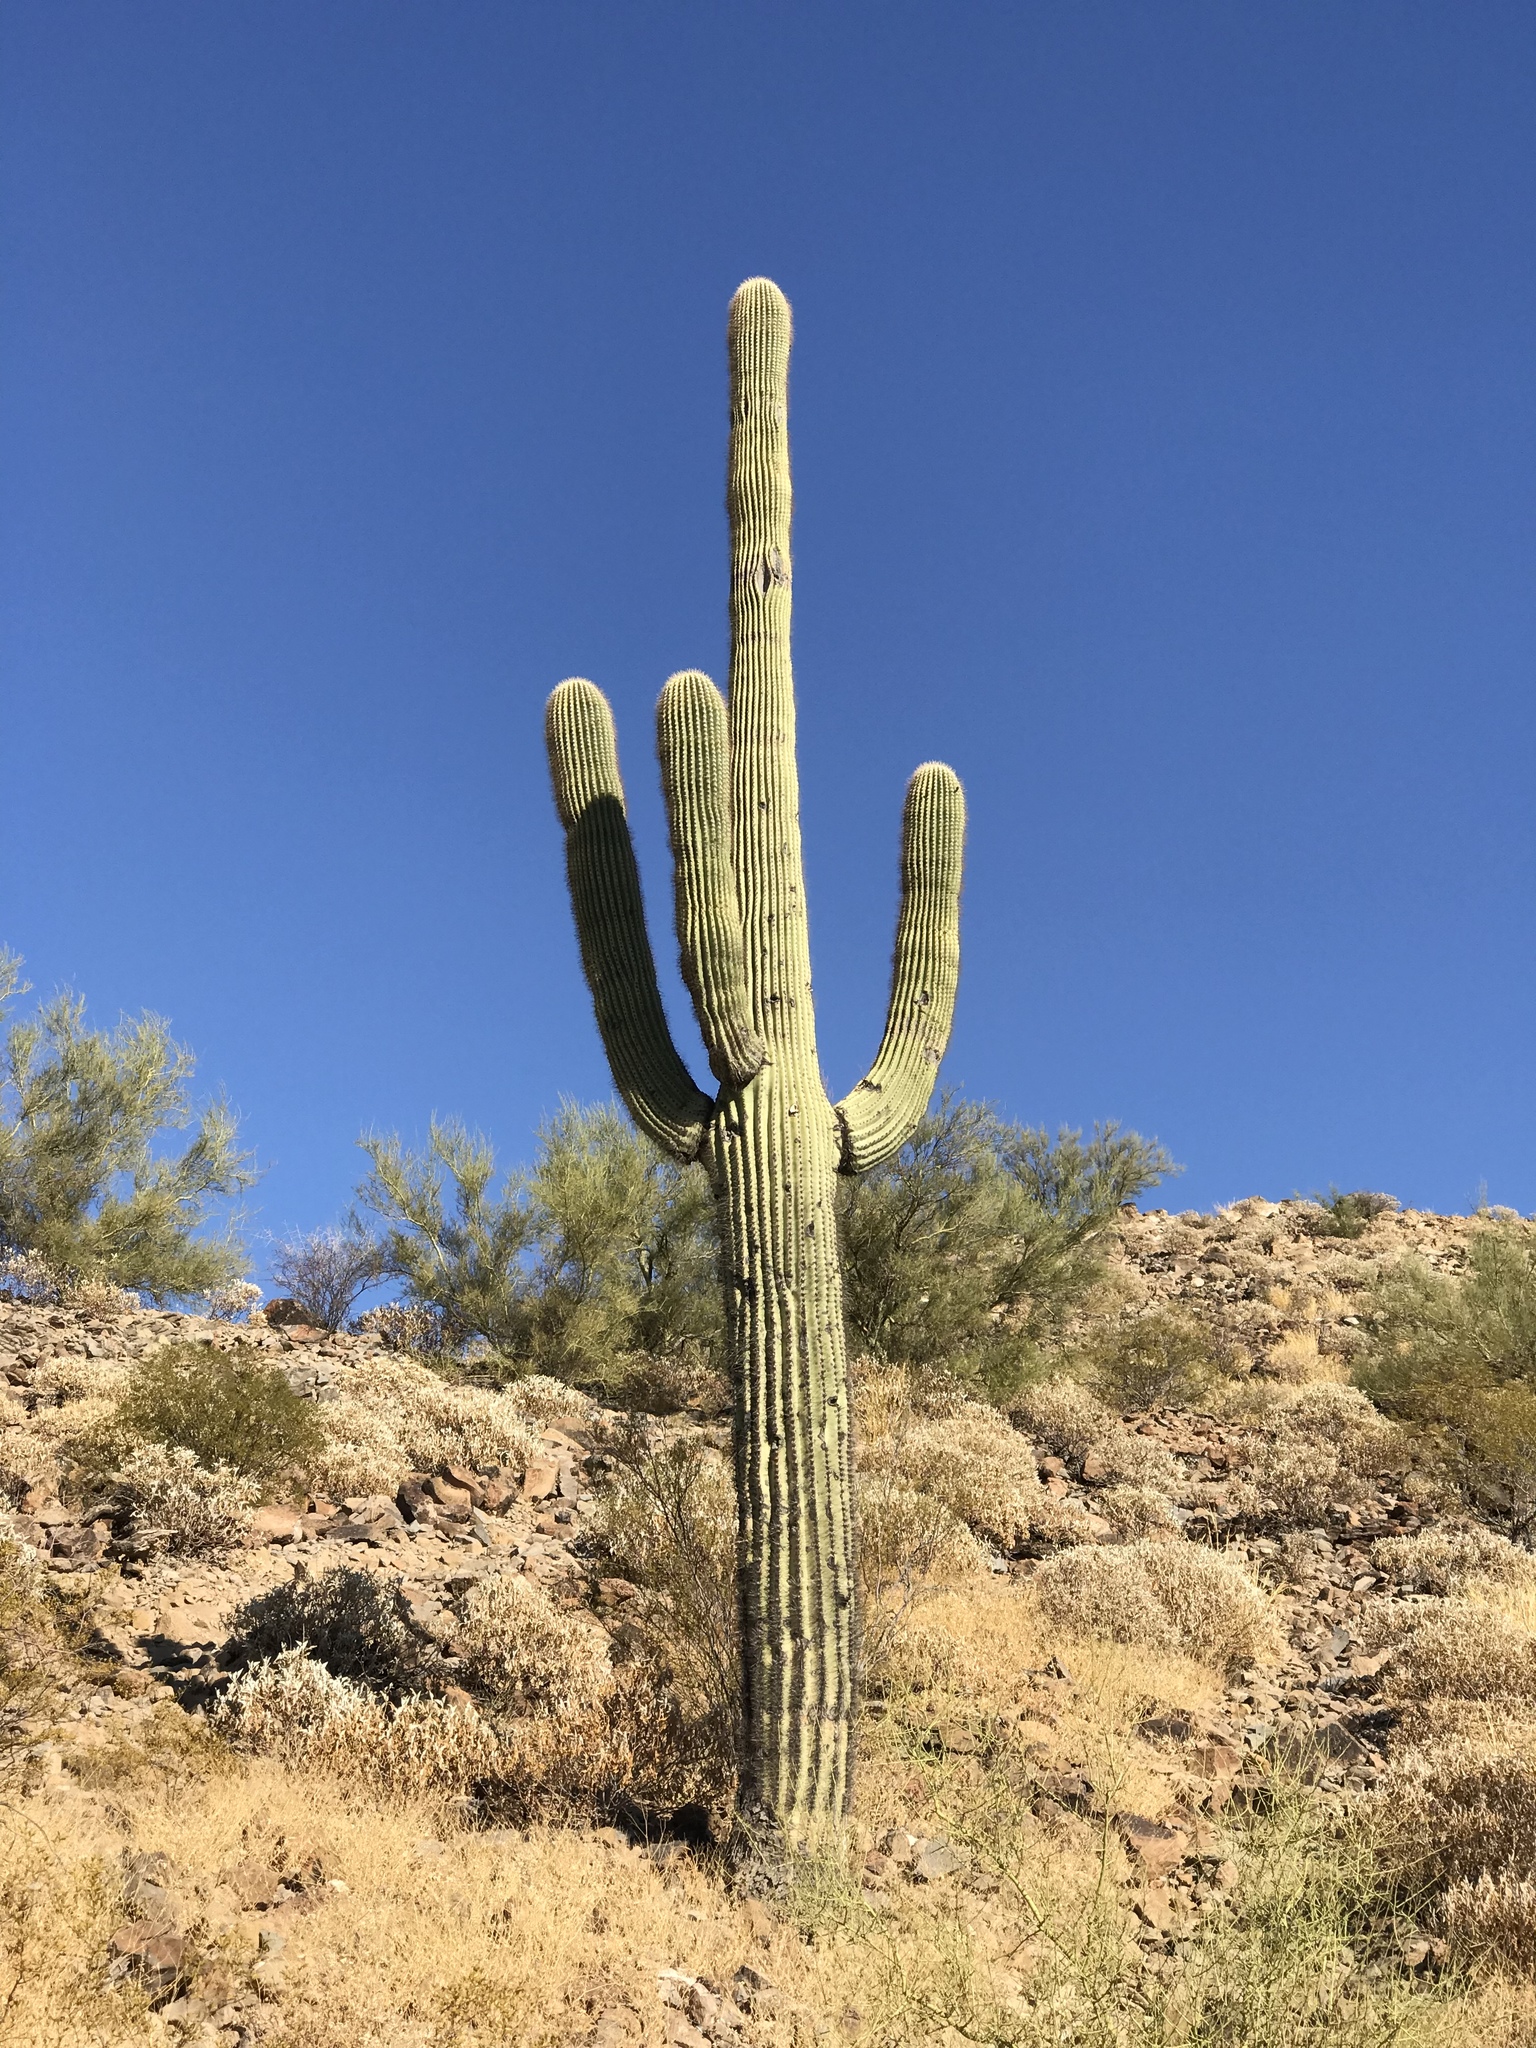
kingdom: Plantae
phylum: Tracheophyta
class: Magnoliopsida
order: Caryophyllales
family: Cactaceae
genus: Carnegiea
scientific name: Carnegiea gigantea
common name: Saguaro
